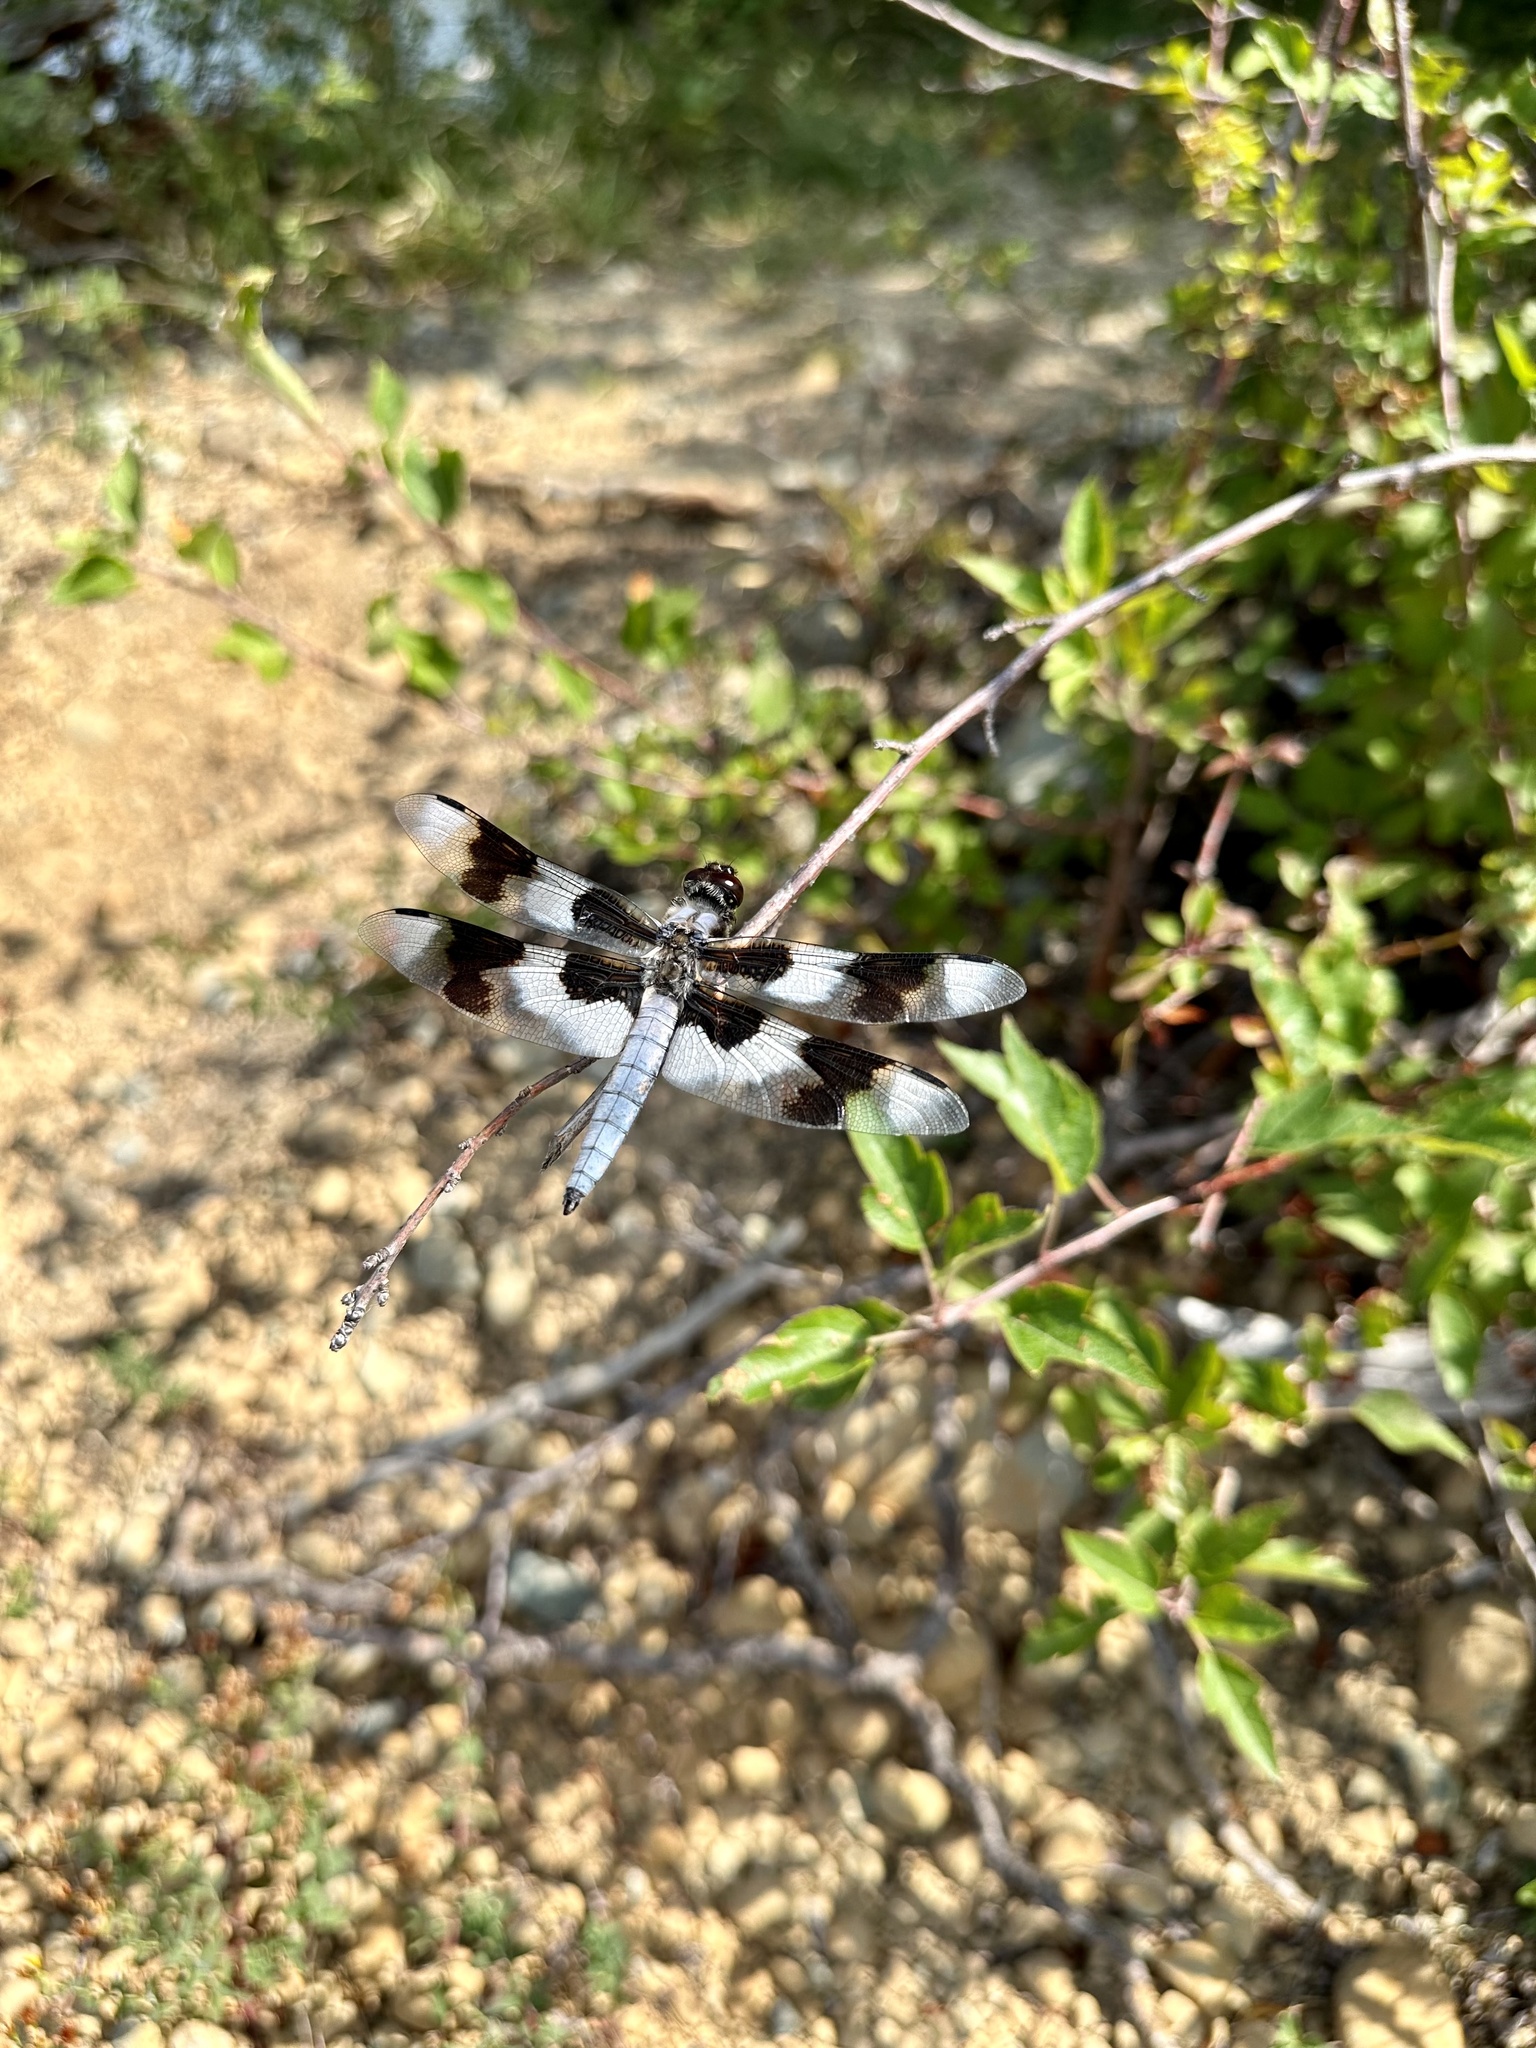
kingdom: Animalia
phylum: Arthropoda
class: Insecta
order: Odonata
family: Libellulidae
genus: Libellula
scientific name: Libellula forensis
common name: Eight-spotted skimmer
